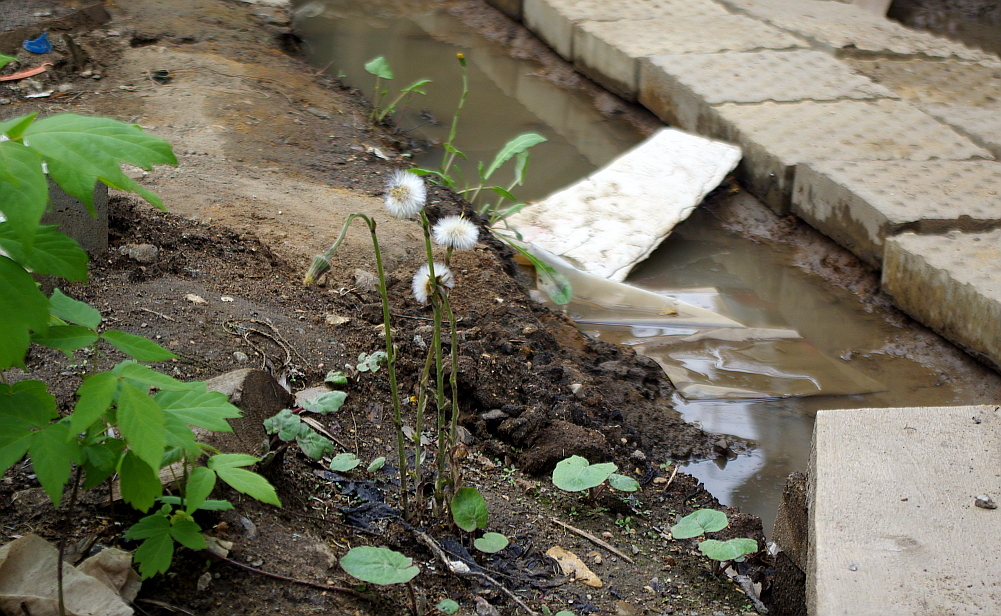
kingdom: Plantae
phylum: Tracheophyta
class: Magnoliopsida
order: Asterales
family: Asteraceae
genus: Tussilago
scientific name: Tussilago farfara
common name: Coltsfoot
